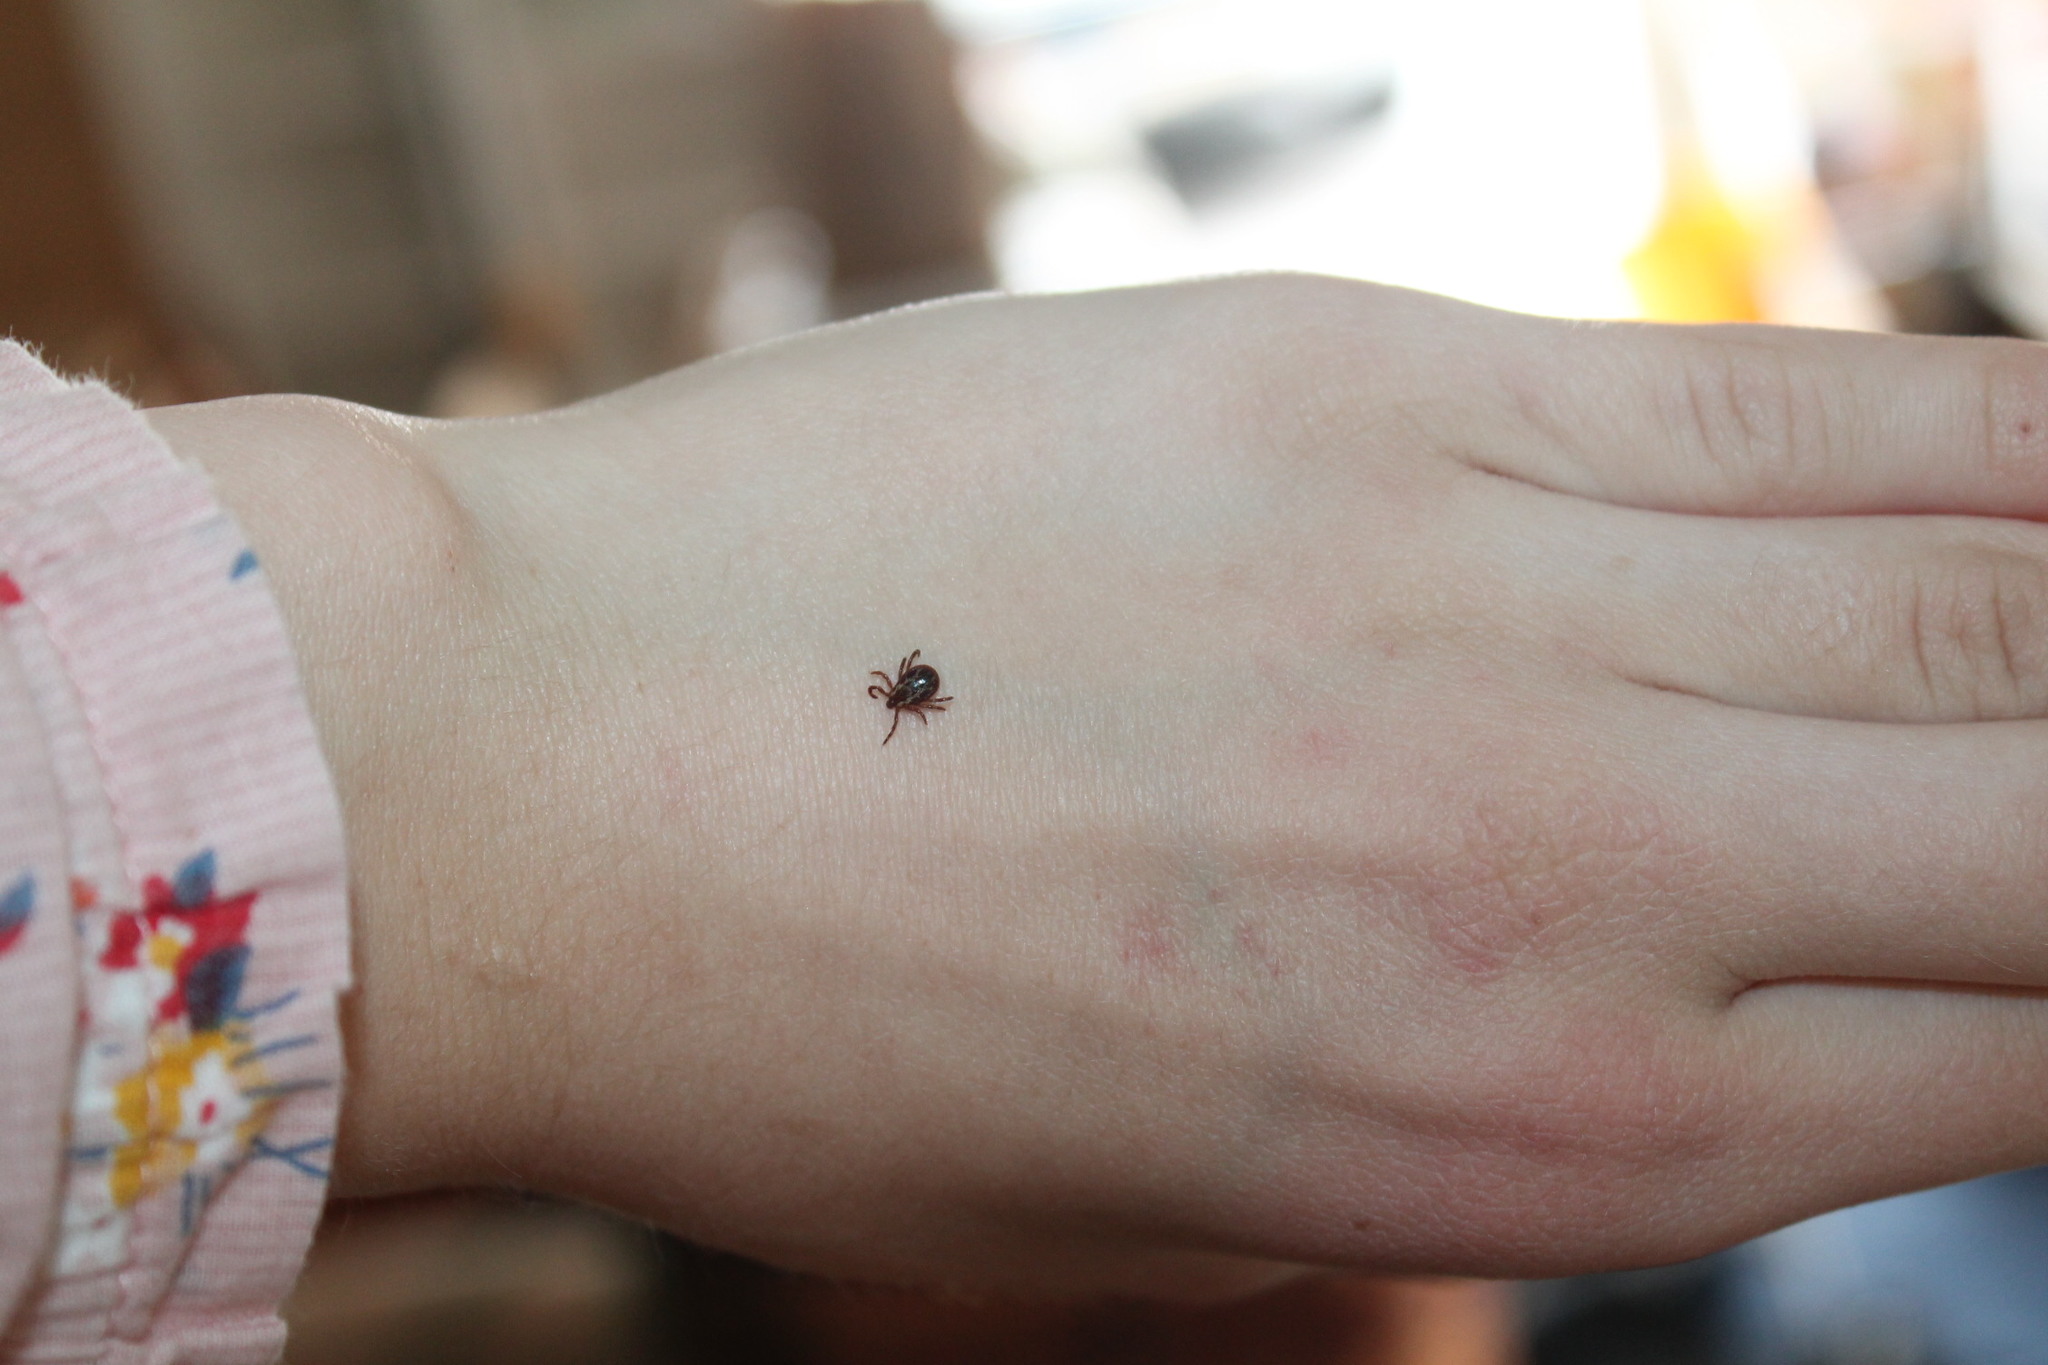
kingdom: Animalia
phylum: Arthropoda
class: Arachnida
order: Ixodida
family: Ixodidae
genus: Dermacentor
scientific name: Dermacentor variabilis
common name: American dog tick
